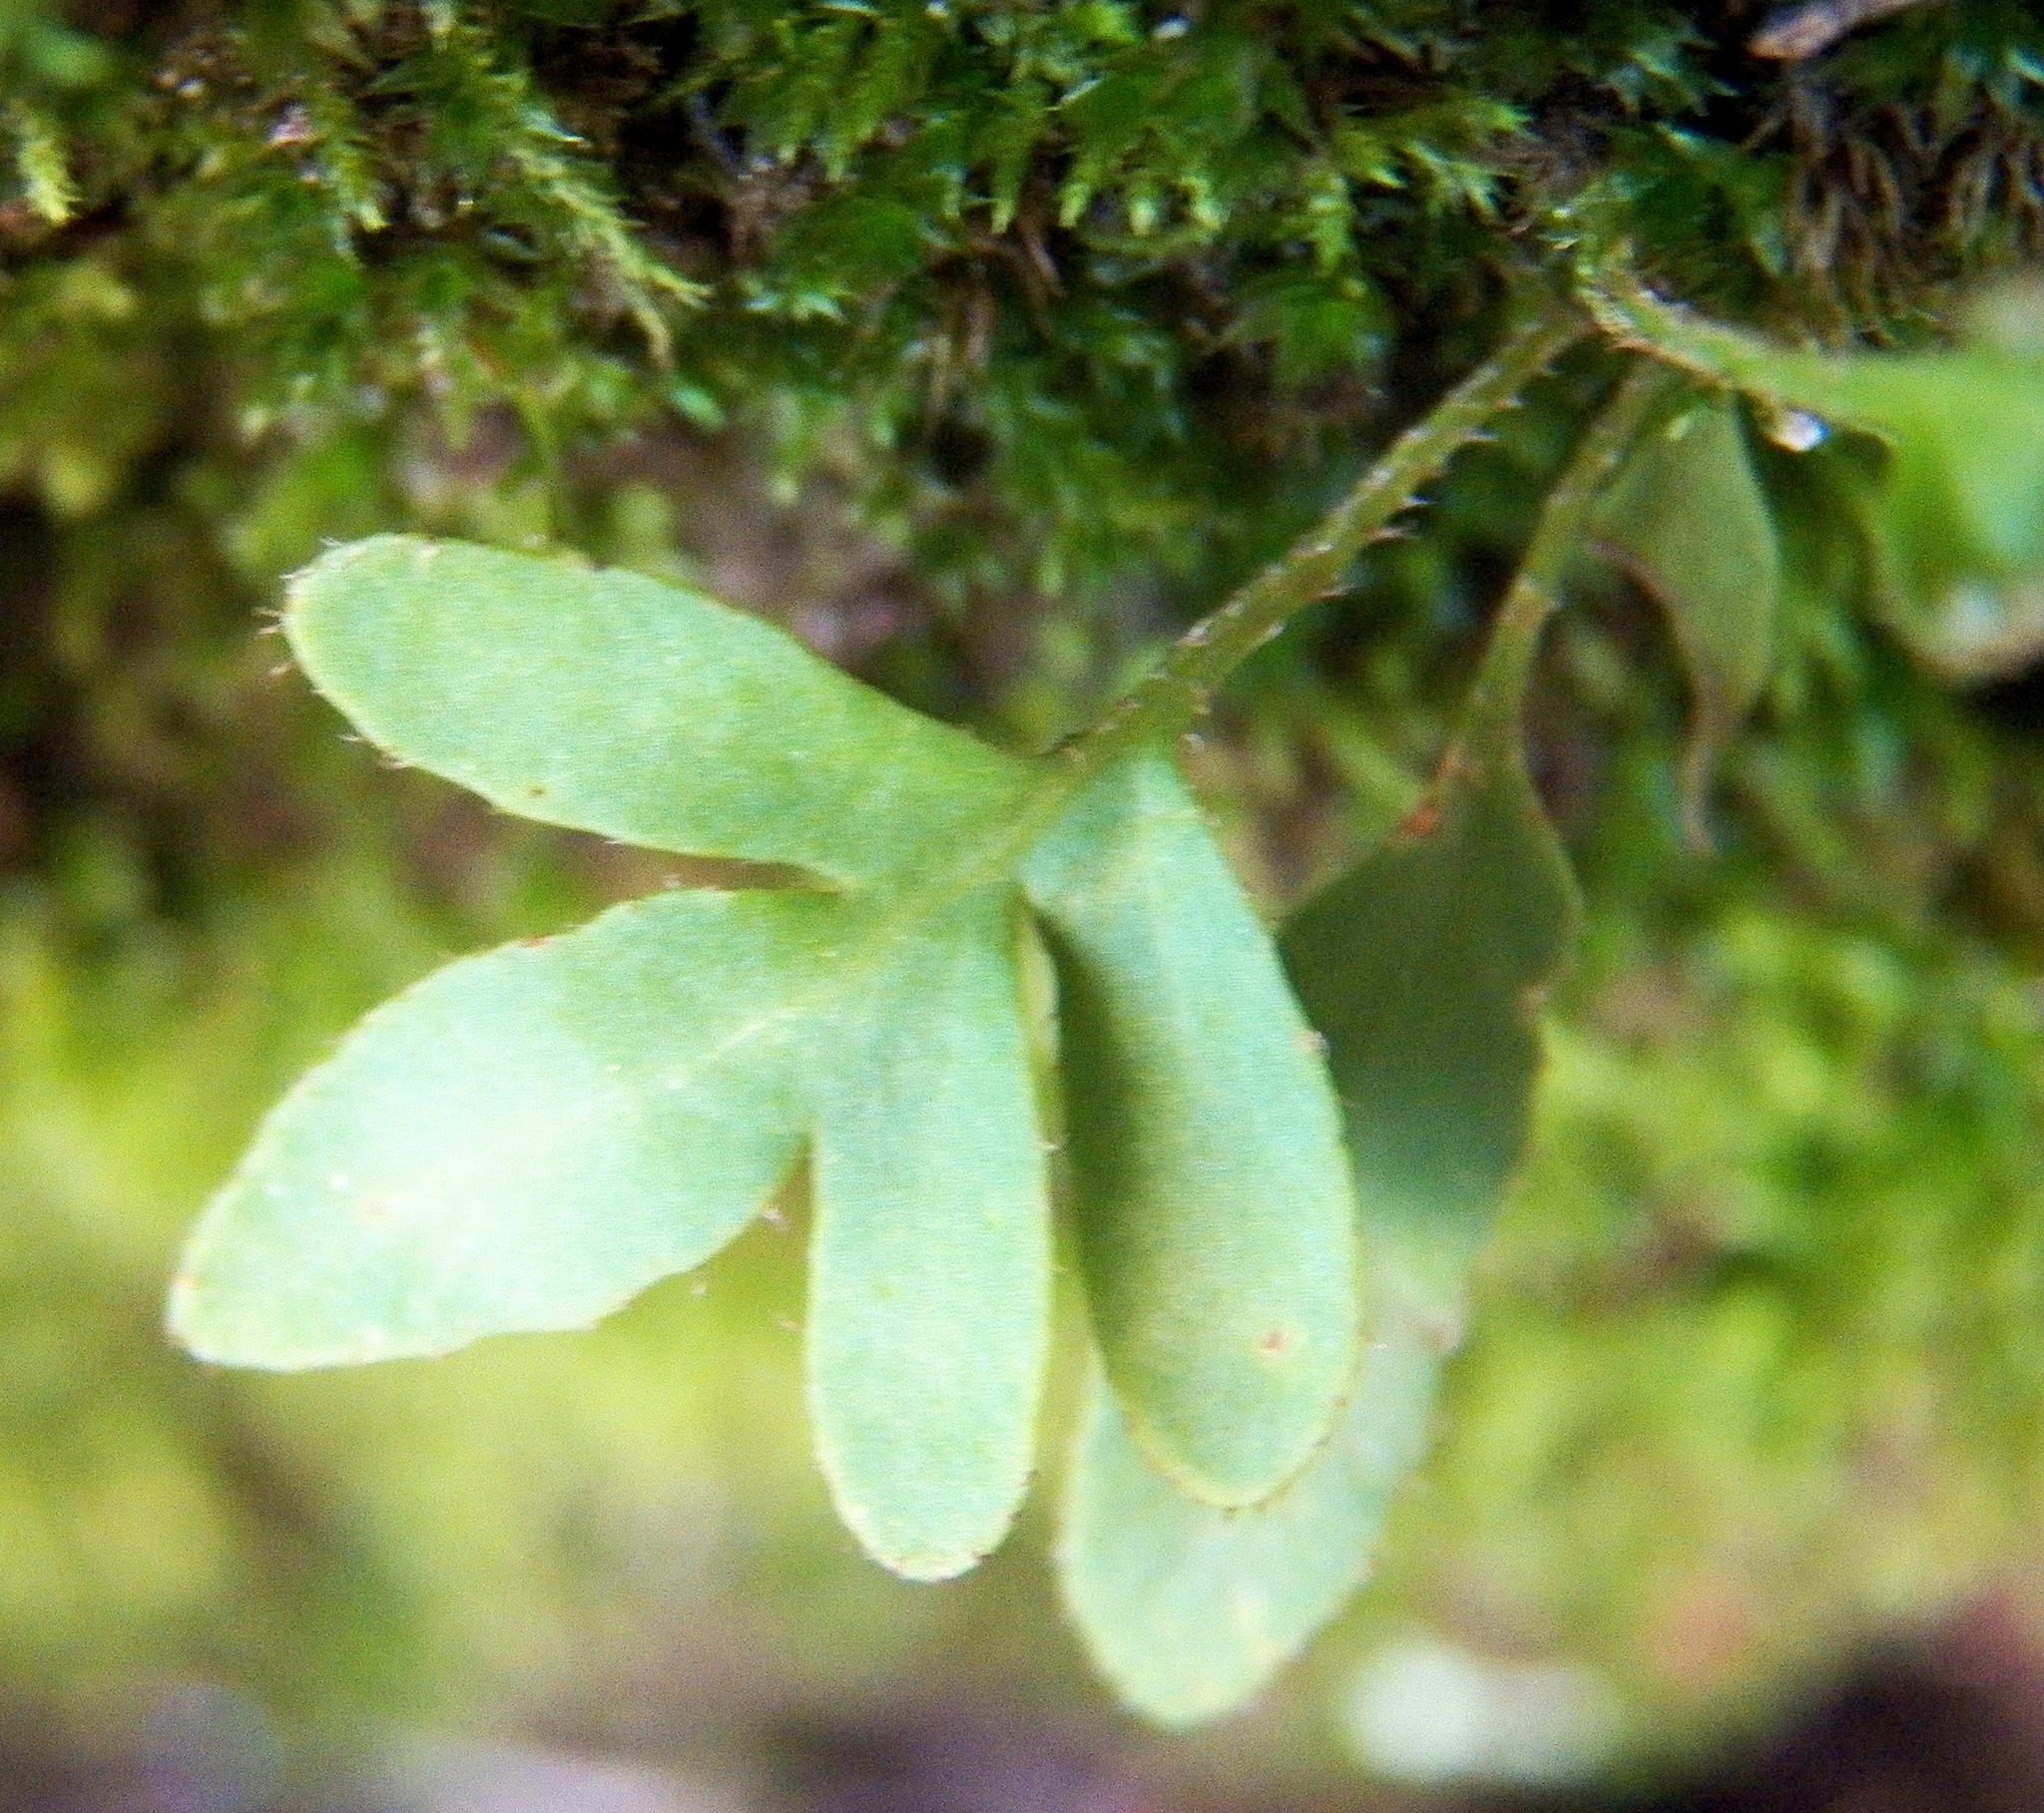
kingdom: Plantae
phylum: Tracheophyta
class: Polypodiopsida
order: Polypodiales
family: Polypodiaceae
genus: Pleopeltis
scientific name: Pleopeltis michauxiana
